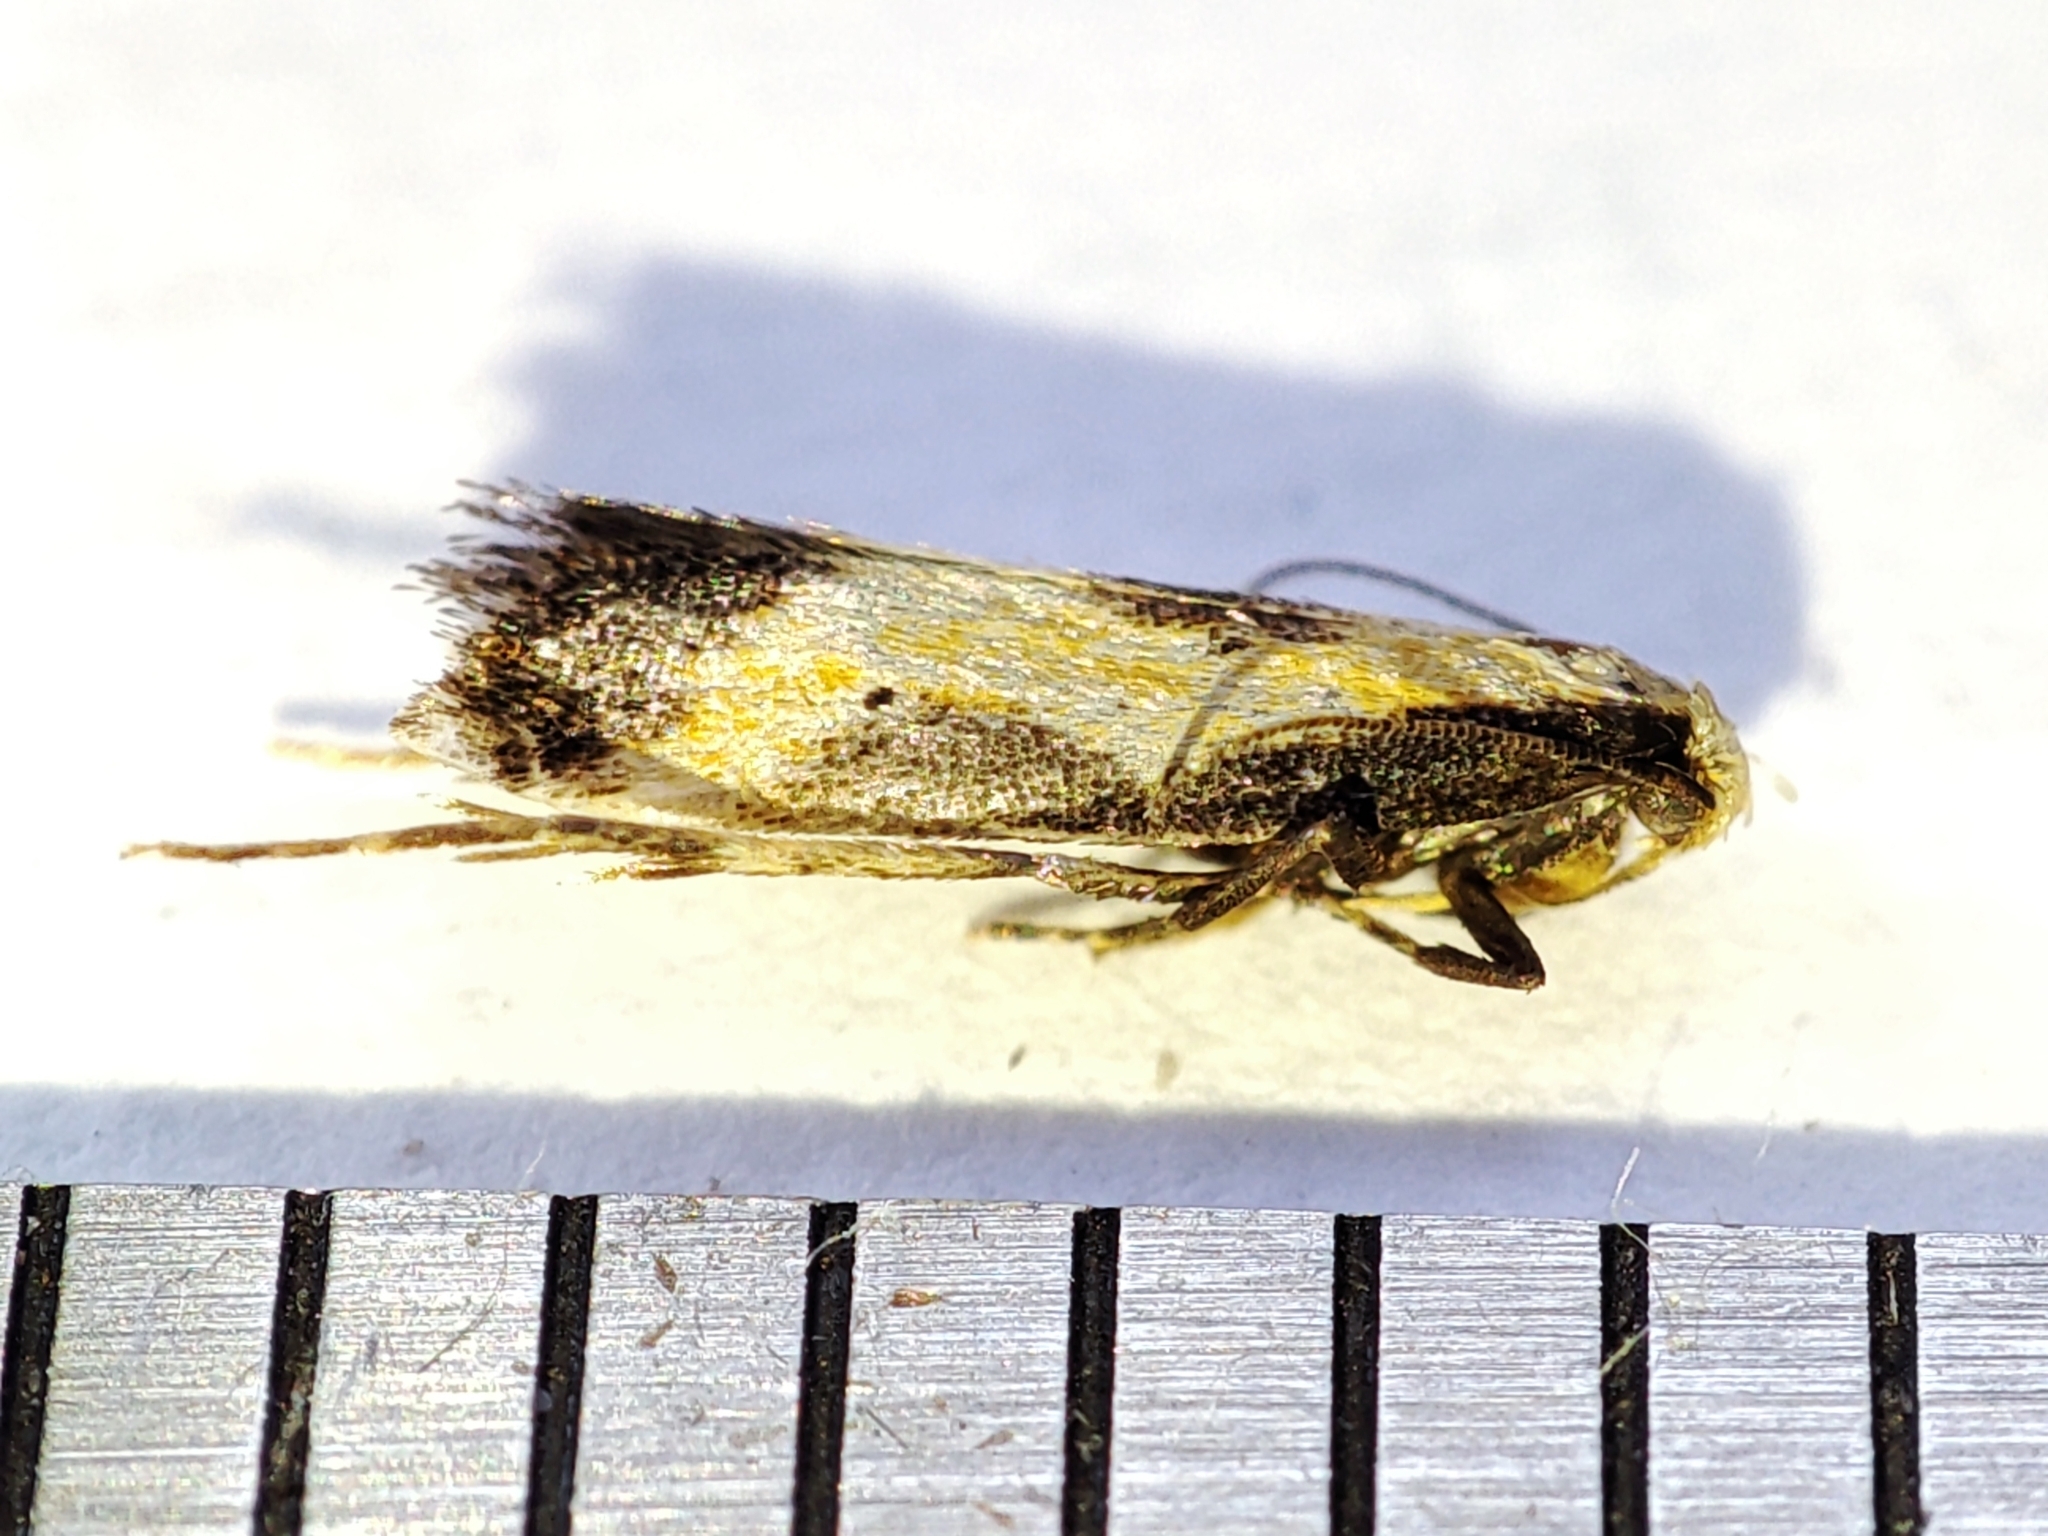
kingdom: Animalia
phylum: Arthropoda
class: Insecta
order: Lepidoptera
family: Gelechiidae
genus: Brachmia
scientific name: Brachmia dimidiella
